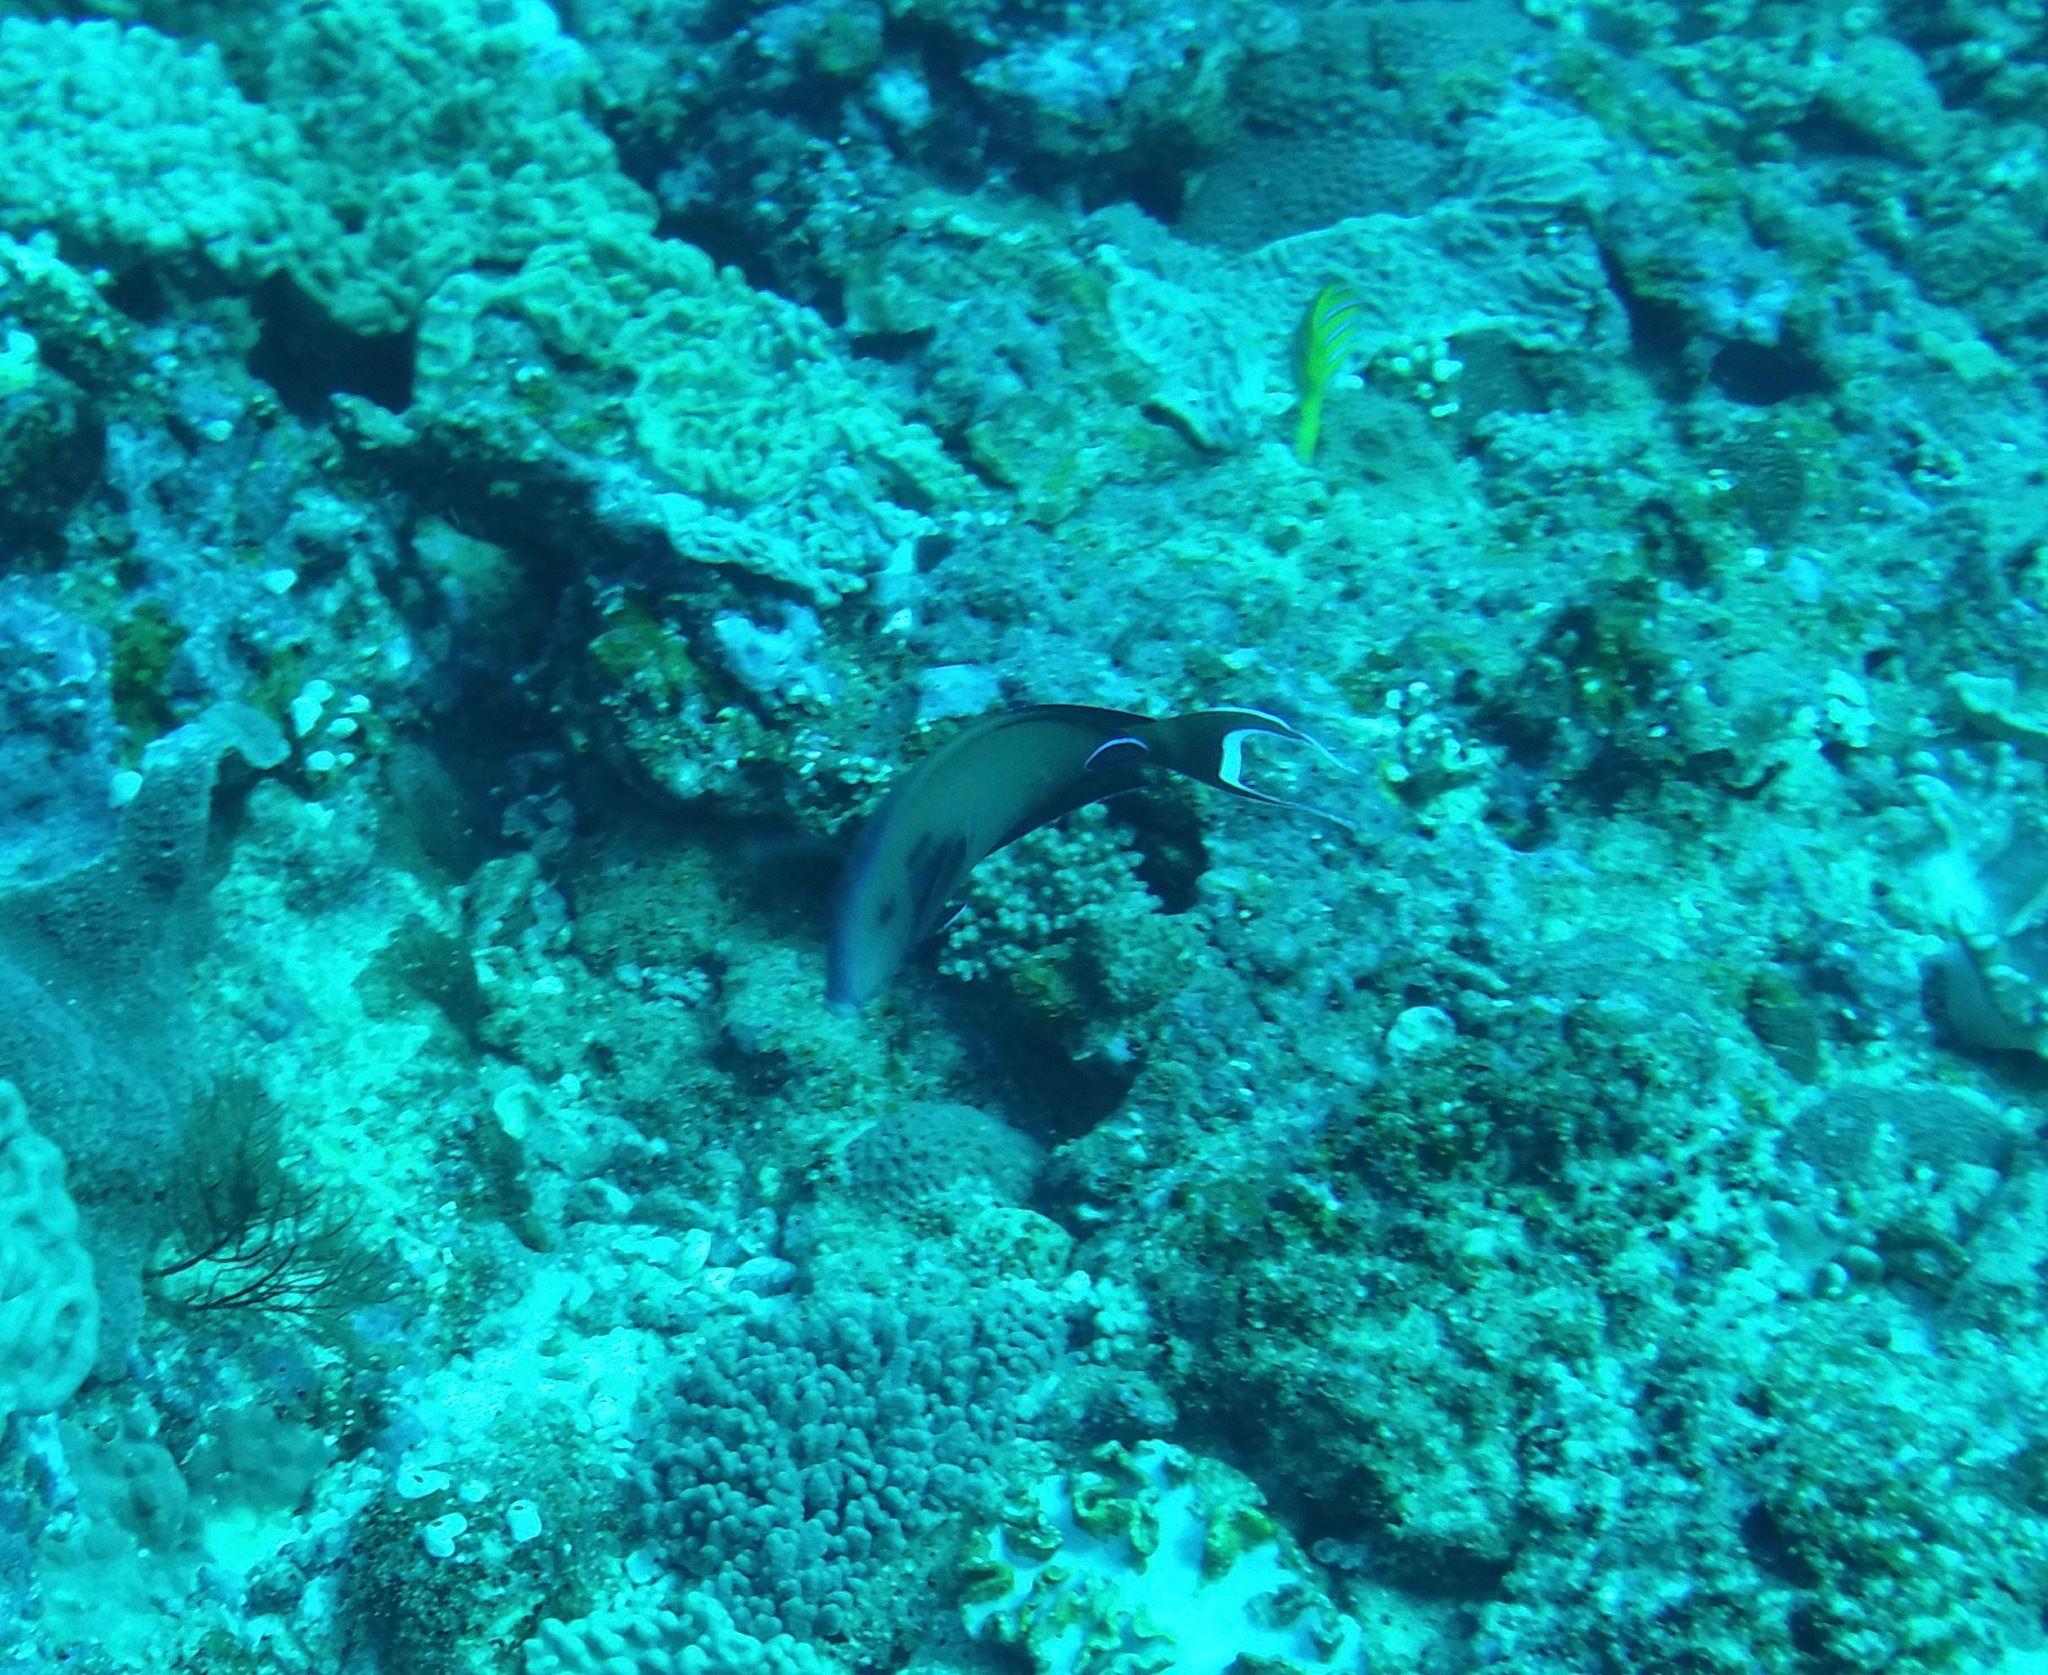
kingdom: Animalia
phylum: Chordata
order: Perciformes
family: Acanthuridae
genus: Acanthurus
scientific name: Acanthurus tennentii
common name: Doubleband surgeonfish
